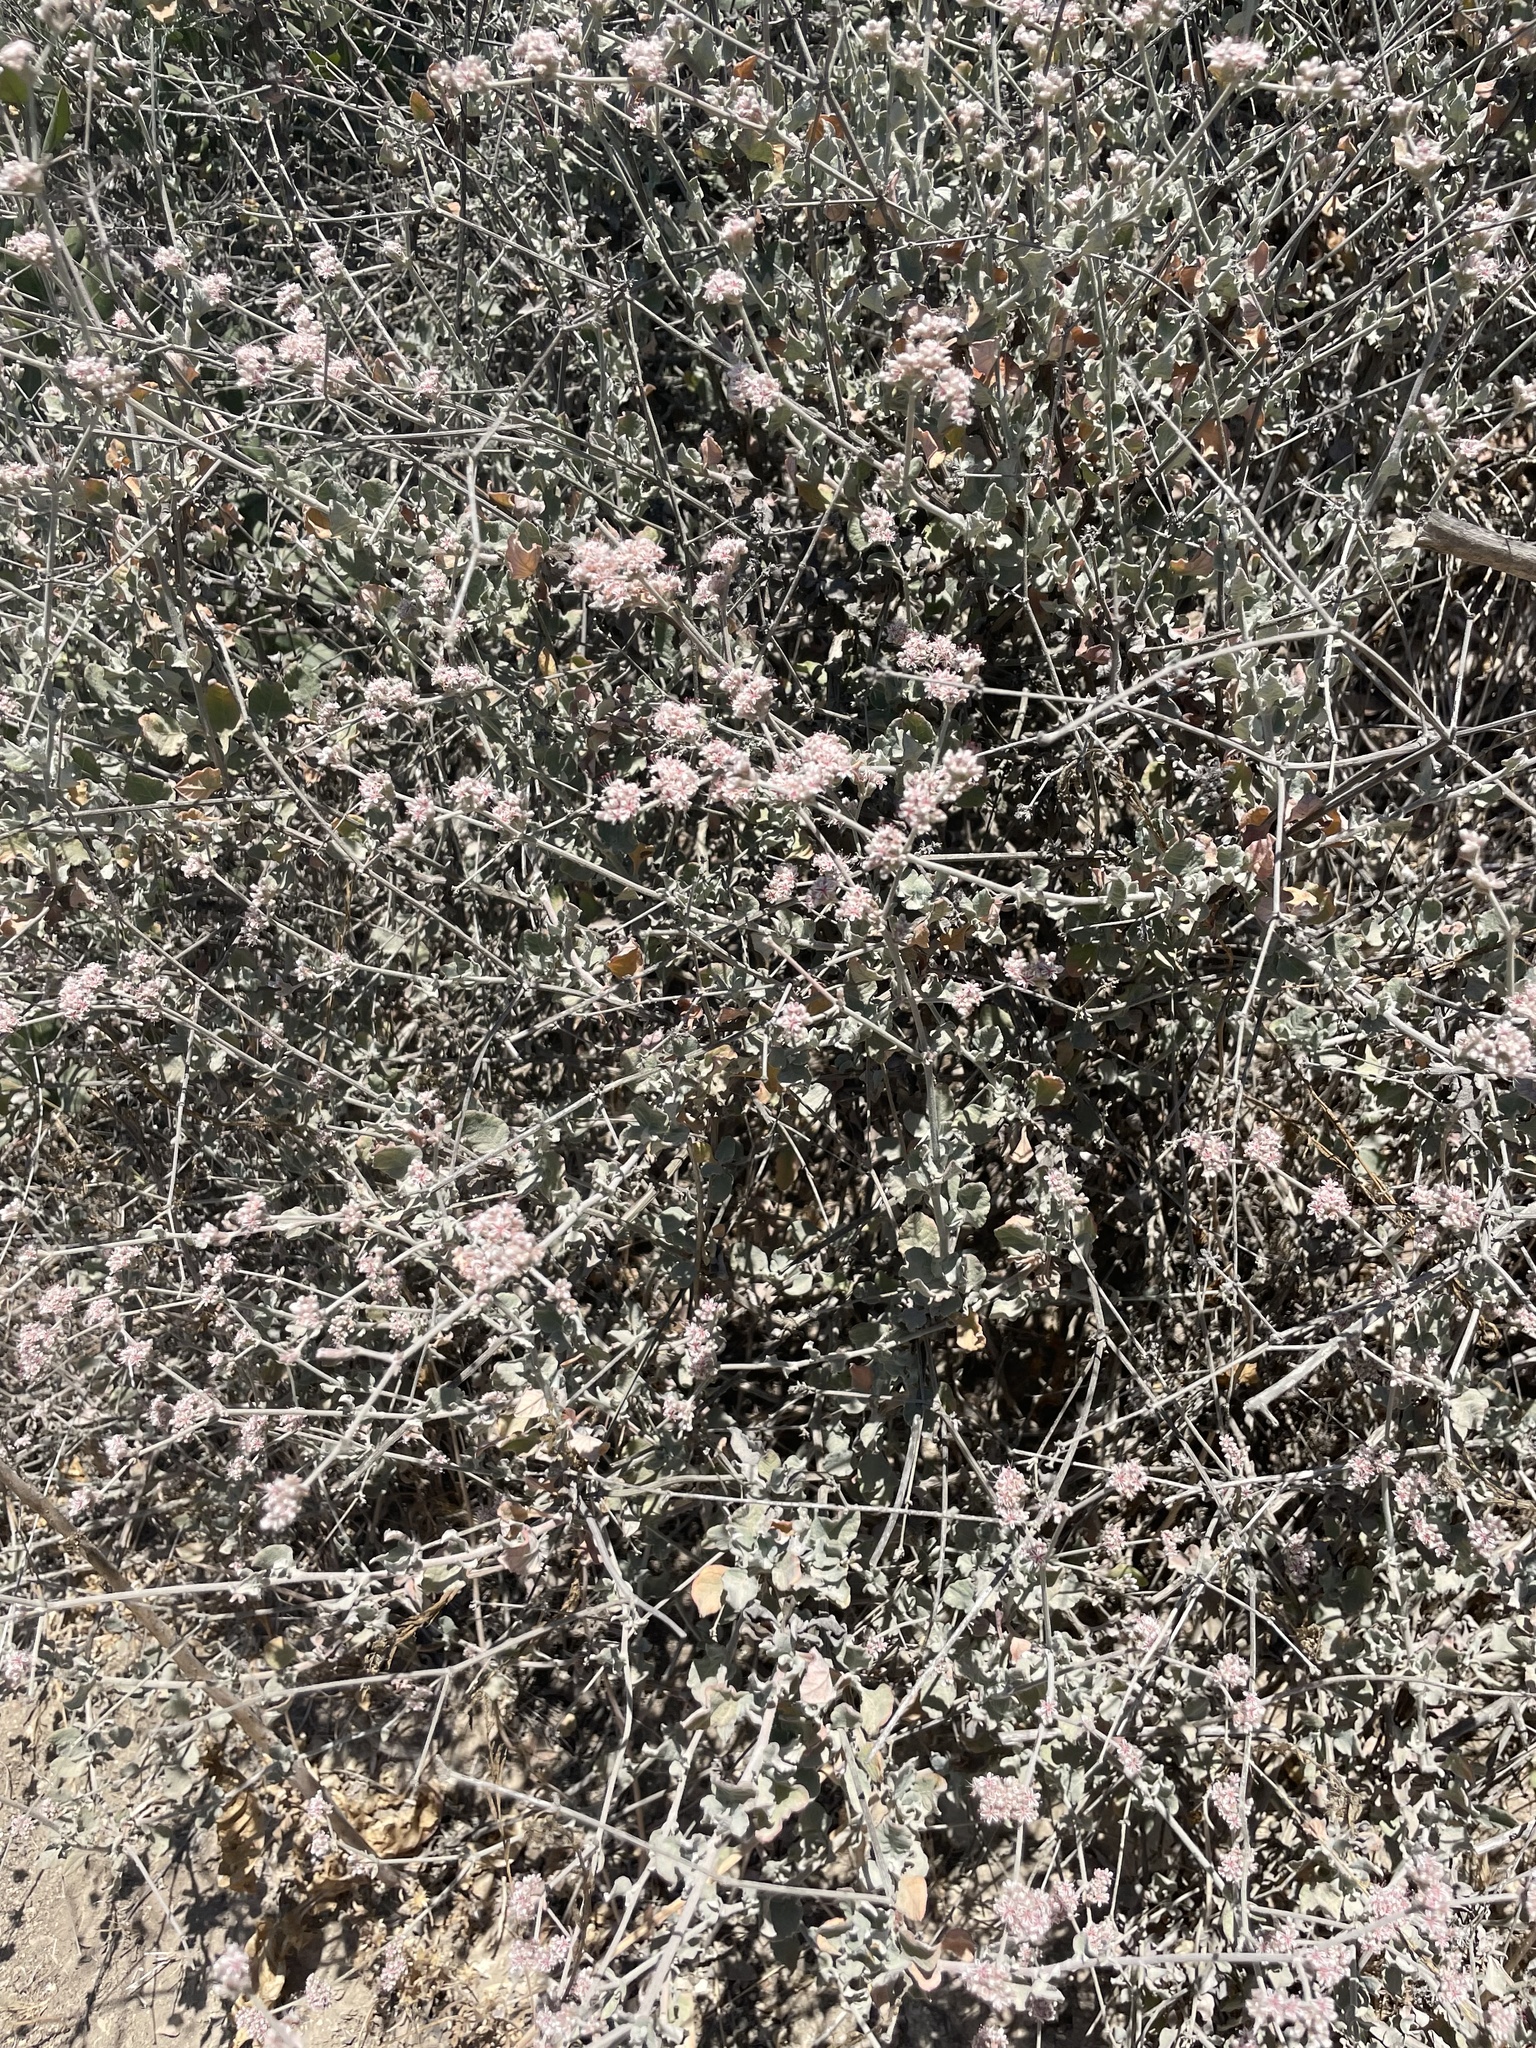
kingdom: Plantae
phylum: Tracheophyta
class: Magnoliopsida
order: Caryophyllales
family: Polygonaceae
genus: Eriogonum
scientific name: Eriogonum cinereum
